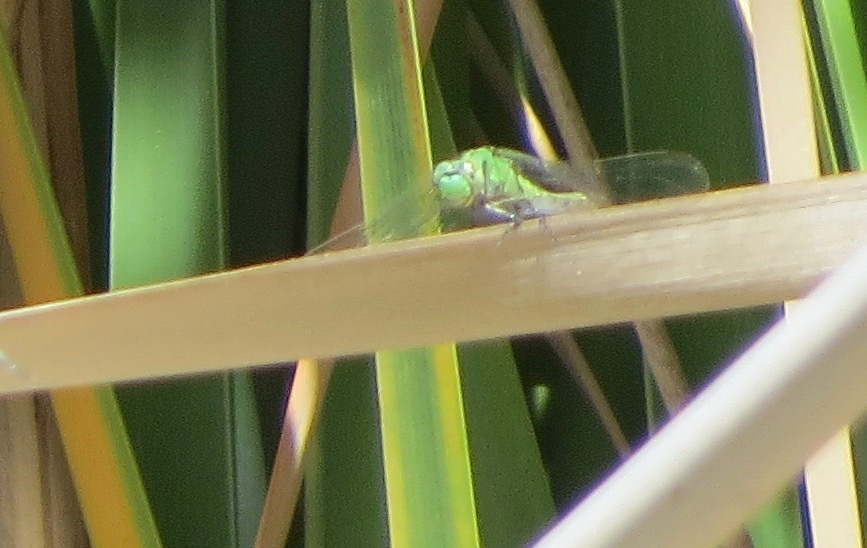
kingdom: Animalia
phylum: Arthropoda
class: Insecta
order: Odonata
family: Libellulidae
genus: Erythemis
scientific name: Erythemis collocata
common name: Western pondhawk
